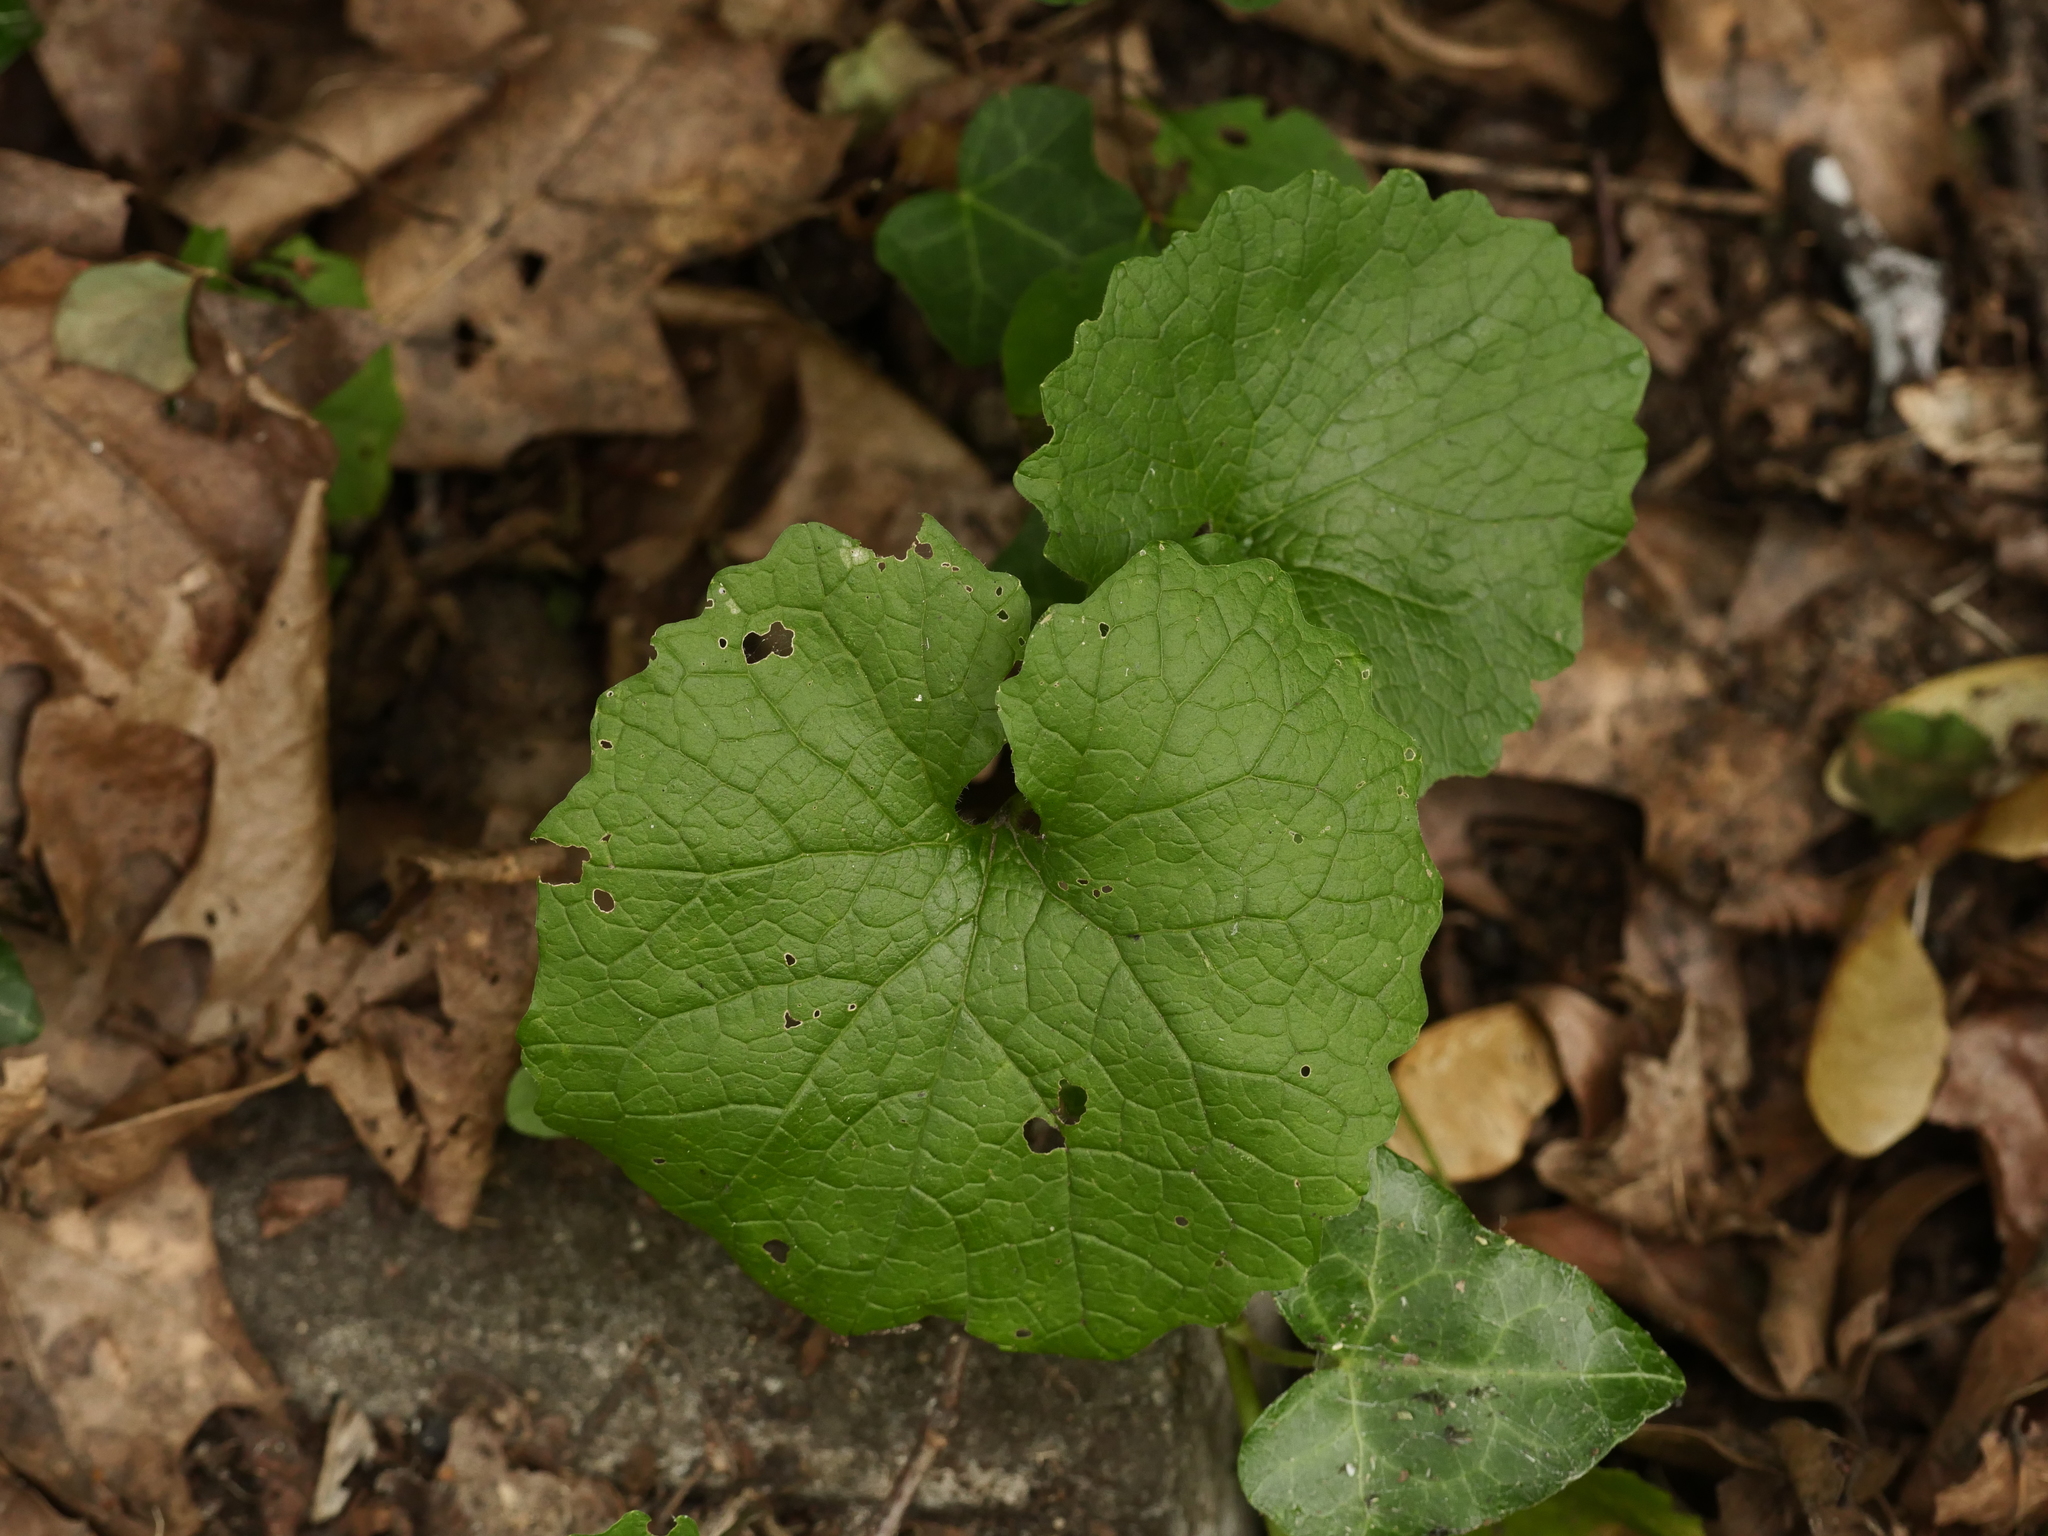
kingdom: Plantae
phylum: Tracheophyta
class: Magnoliopsida
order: Brassicales
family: Brassicaceae
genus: Alliaria
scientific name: Alliaria petiolata
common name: Garlic mustard
